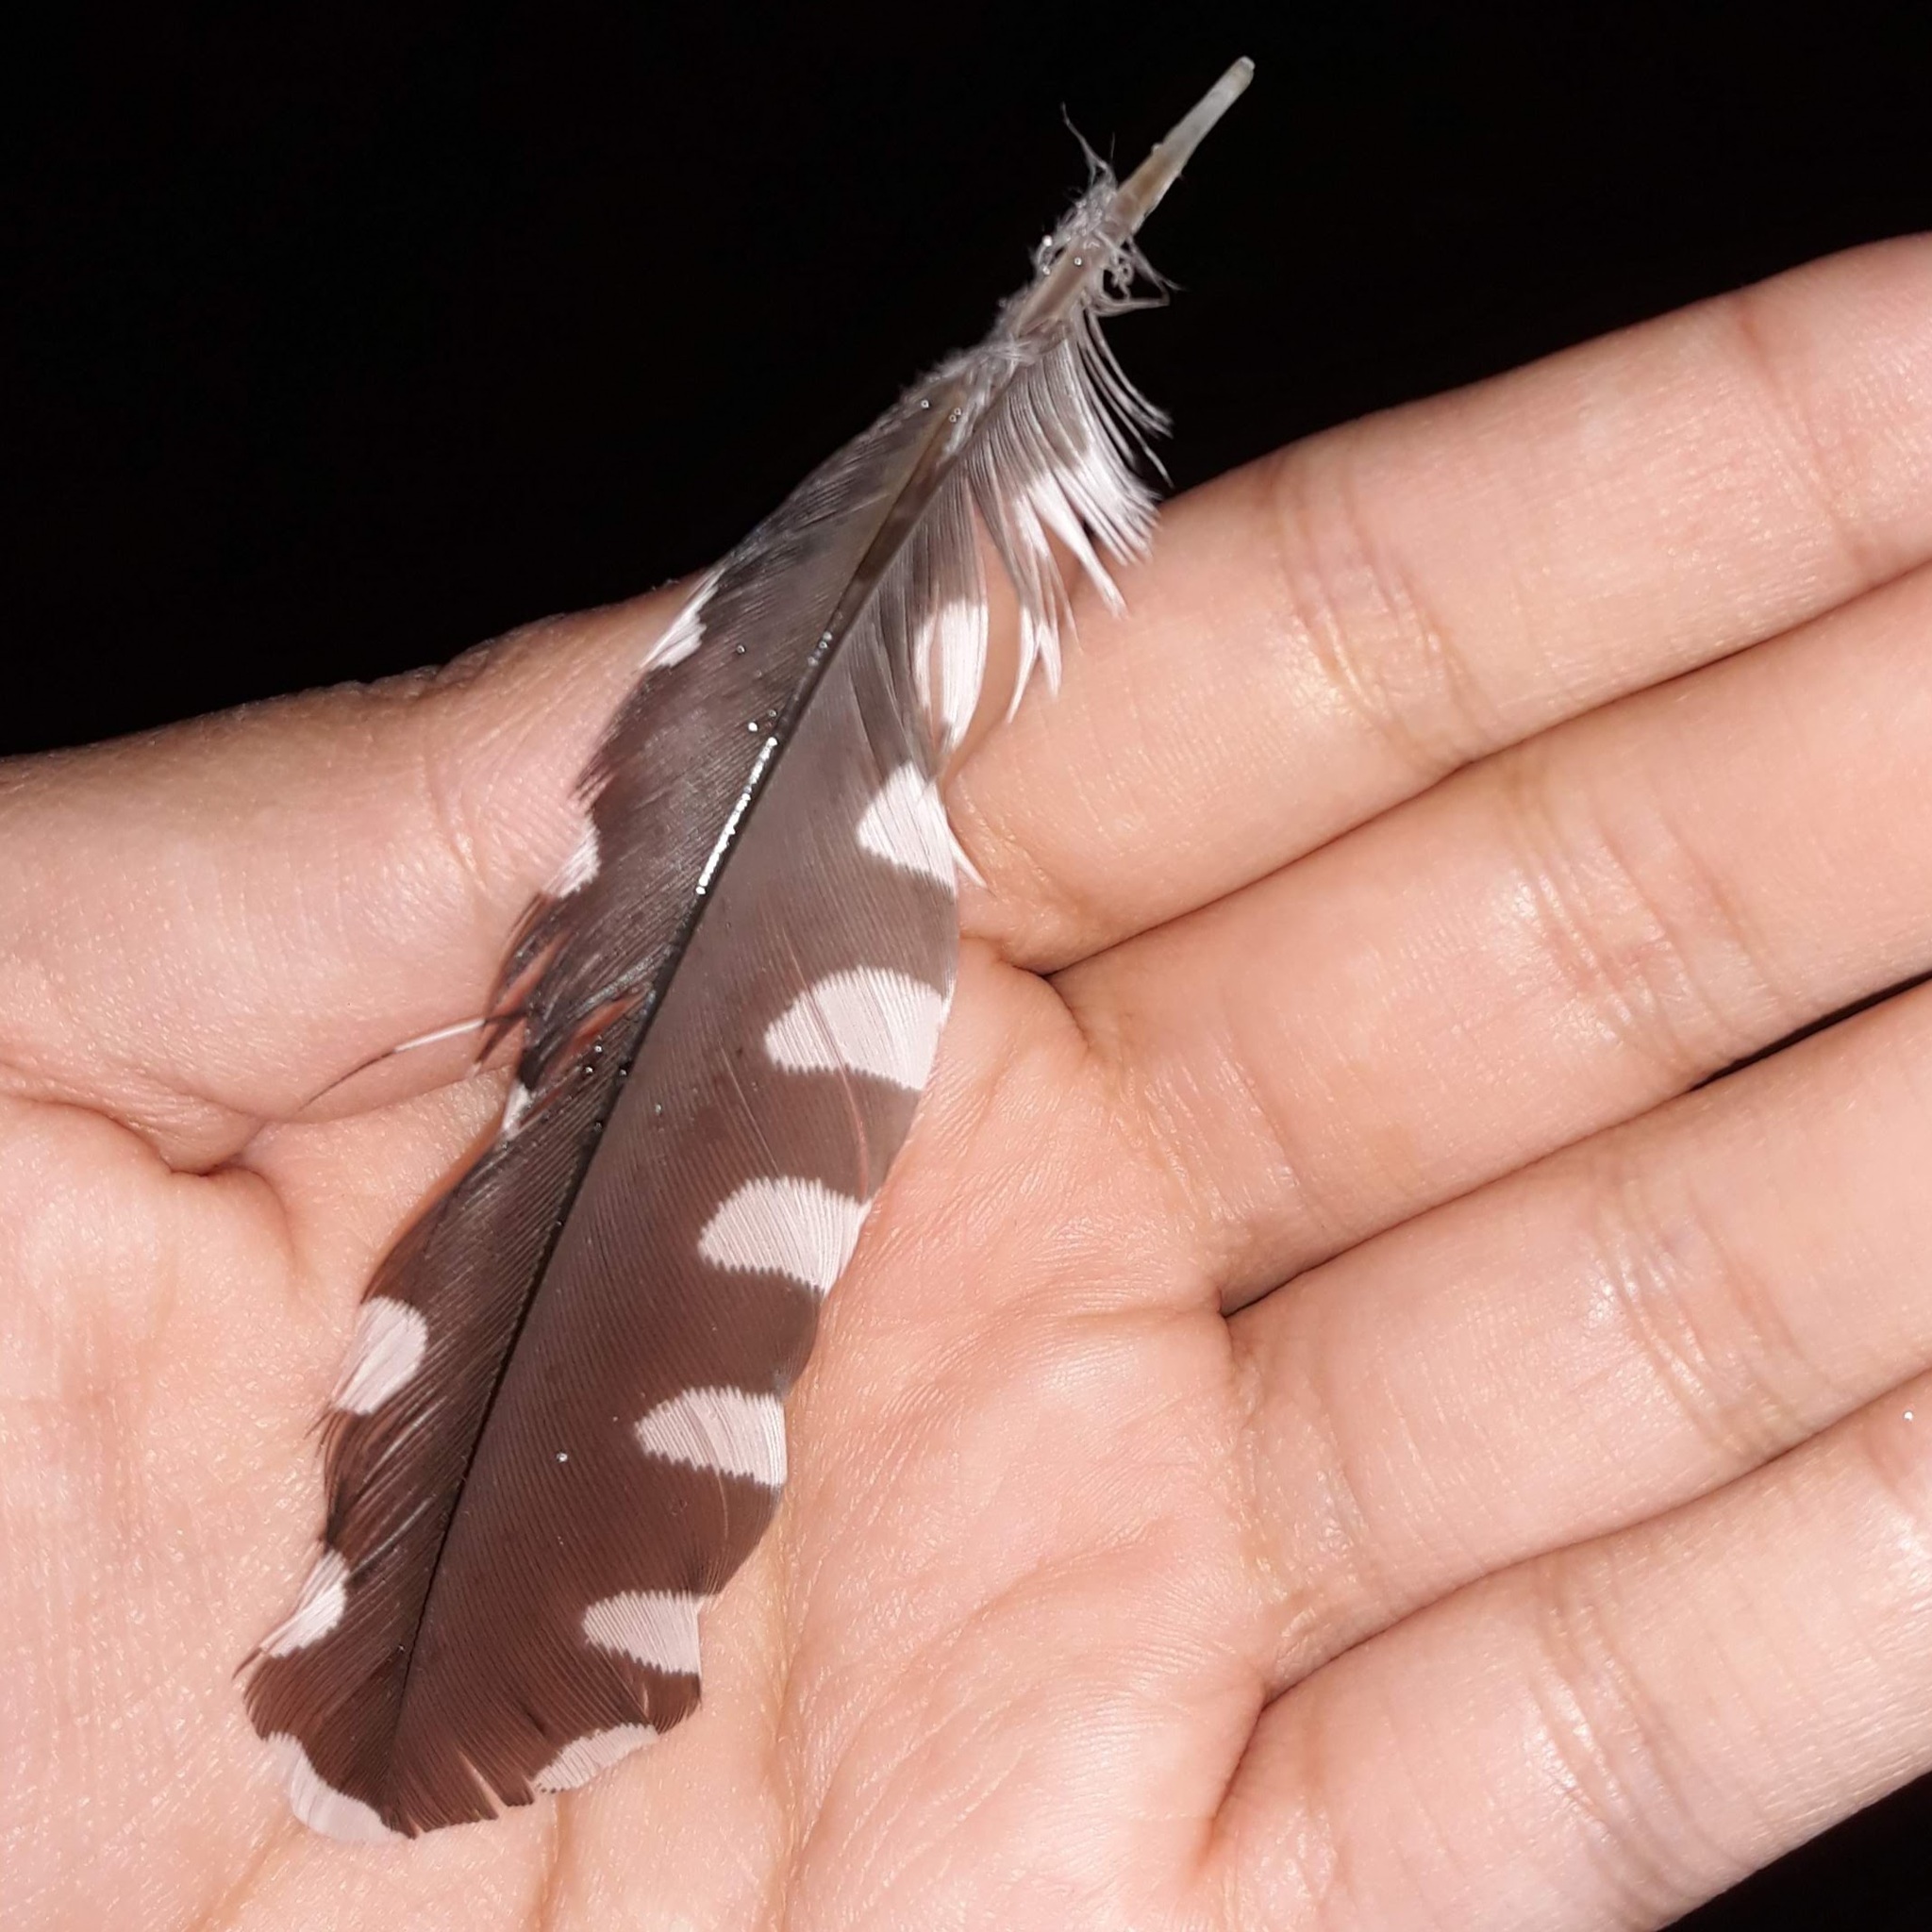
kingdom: Animalia
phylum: Chordata
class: Aves
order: Piciformes
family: Picidae
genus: Melanerpes
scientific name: Melanerpes carolinus
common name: Red-bellied woodpecker
